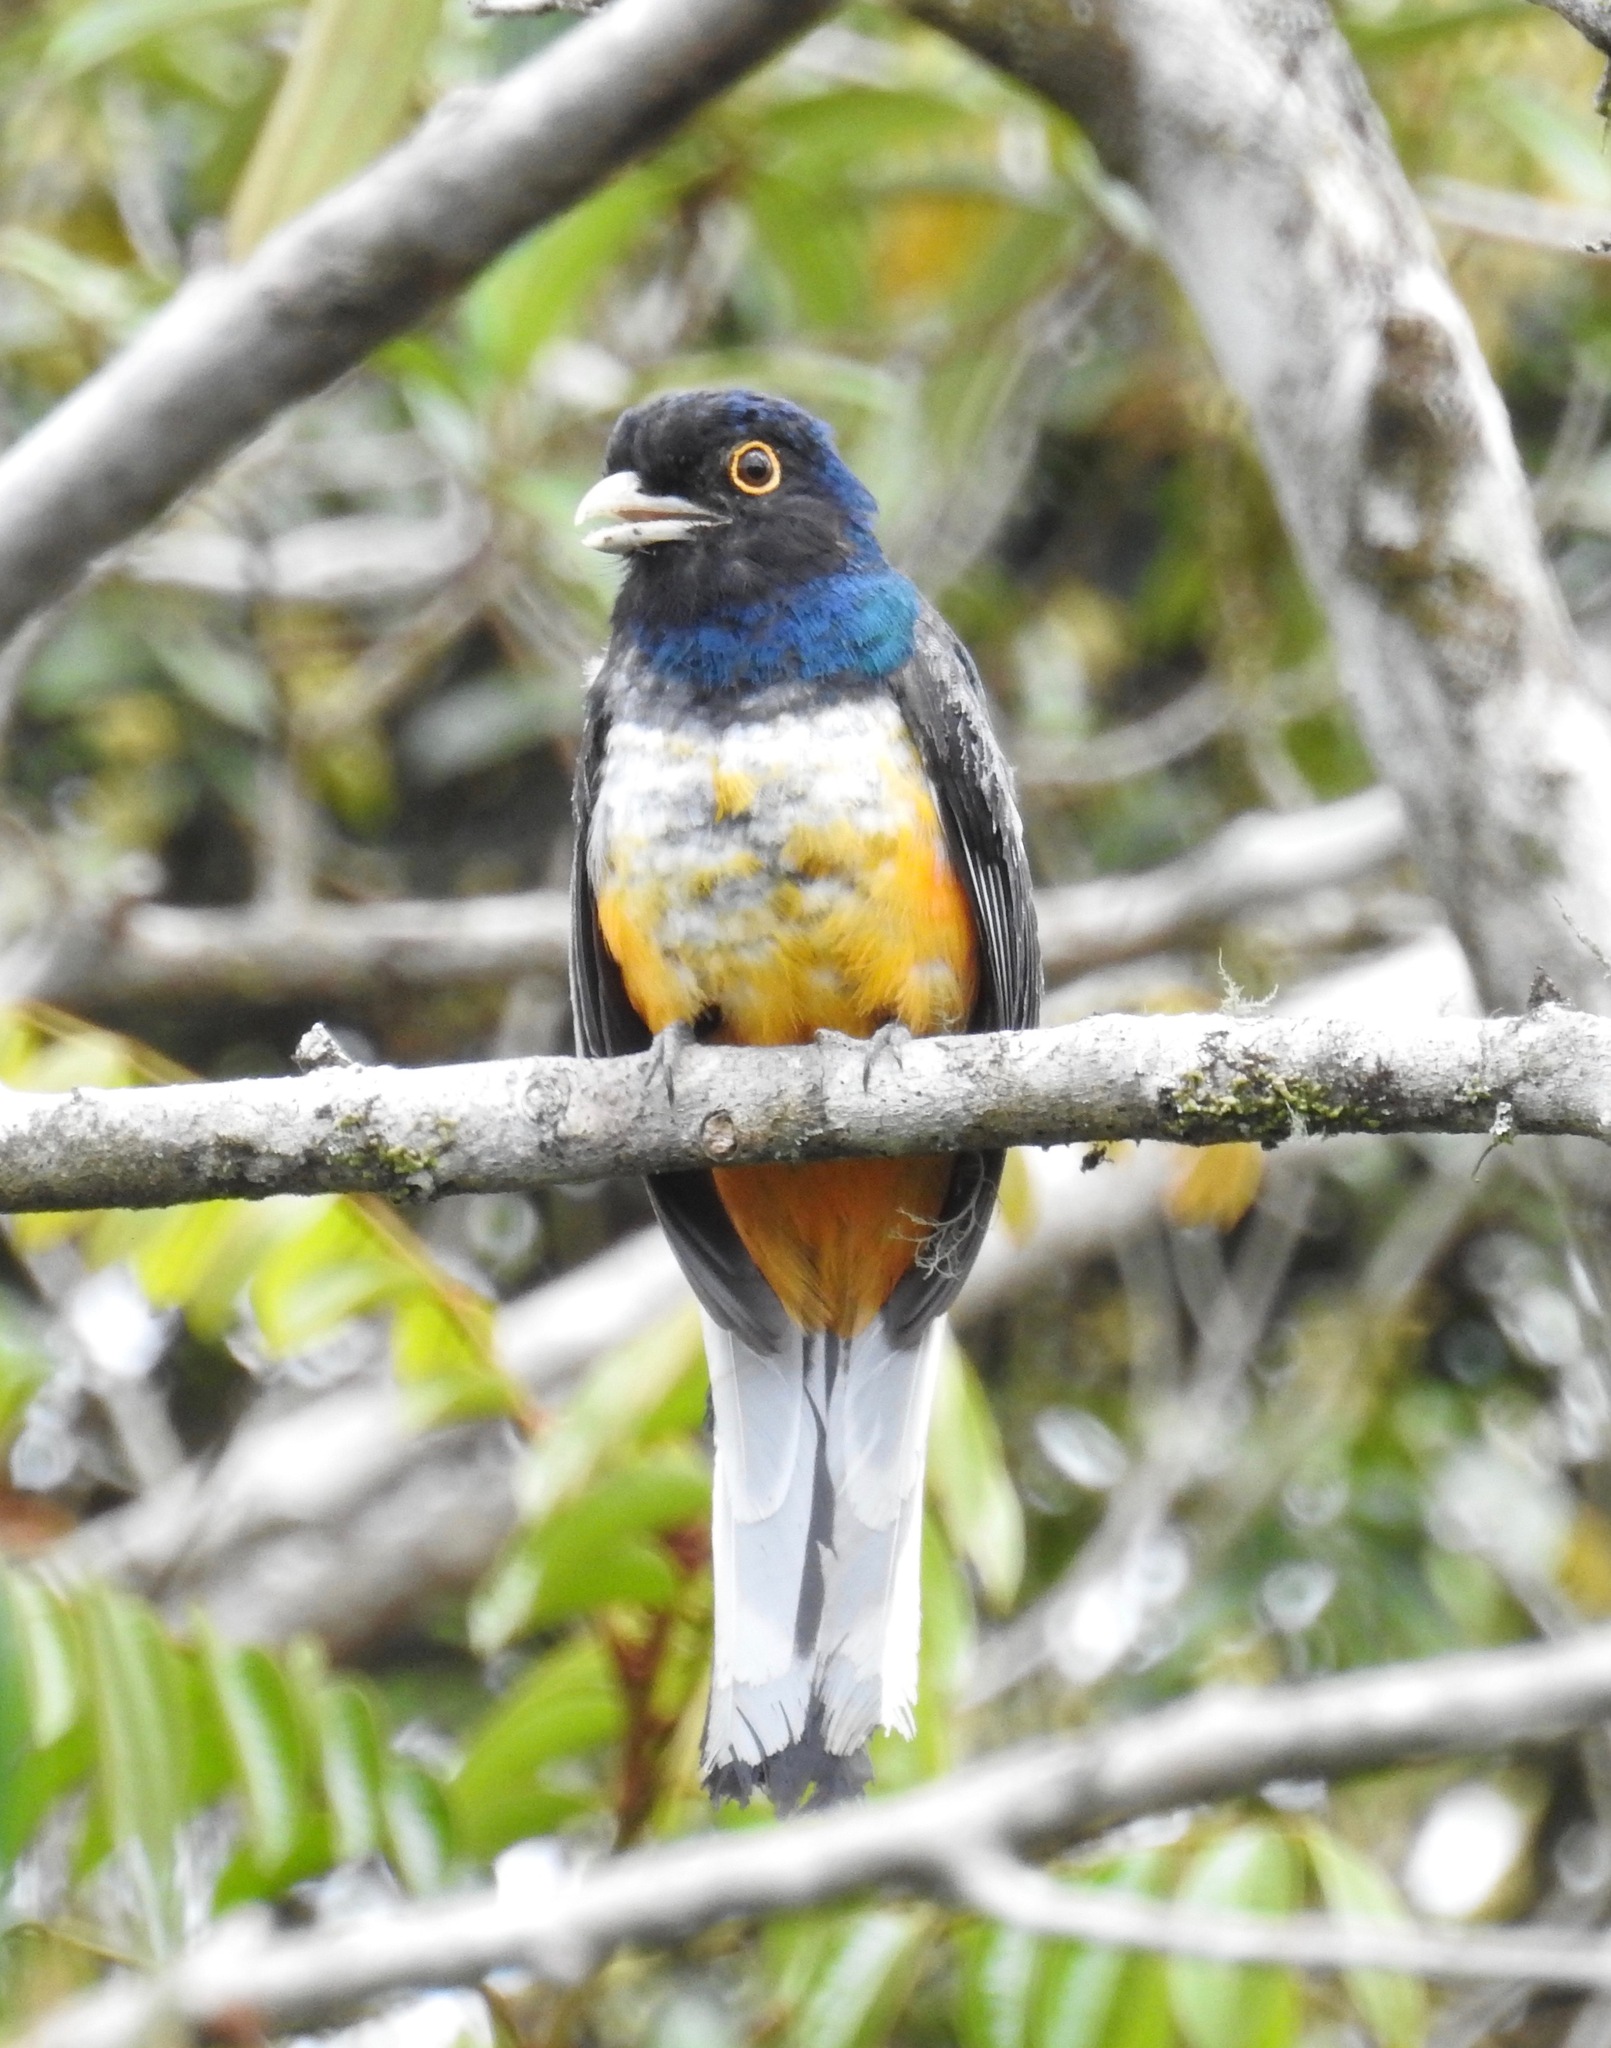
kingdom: Animalia
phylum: Chordata
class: Aves
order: Trogoniformes
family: Trogonidae
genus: Trogon
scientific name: Trogon surrucura
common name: Surucua trogon
